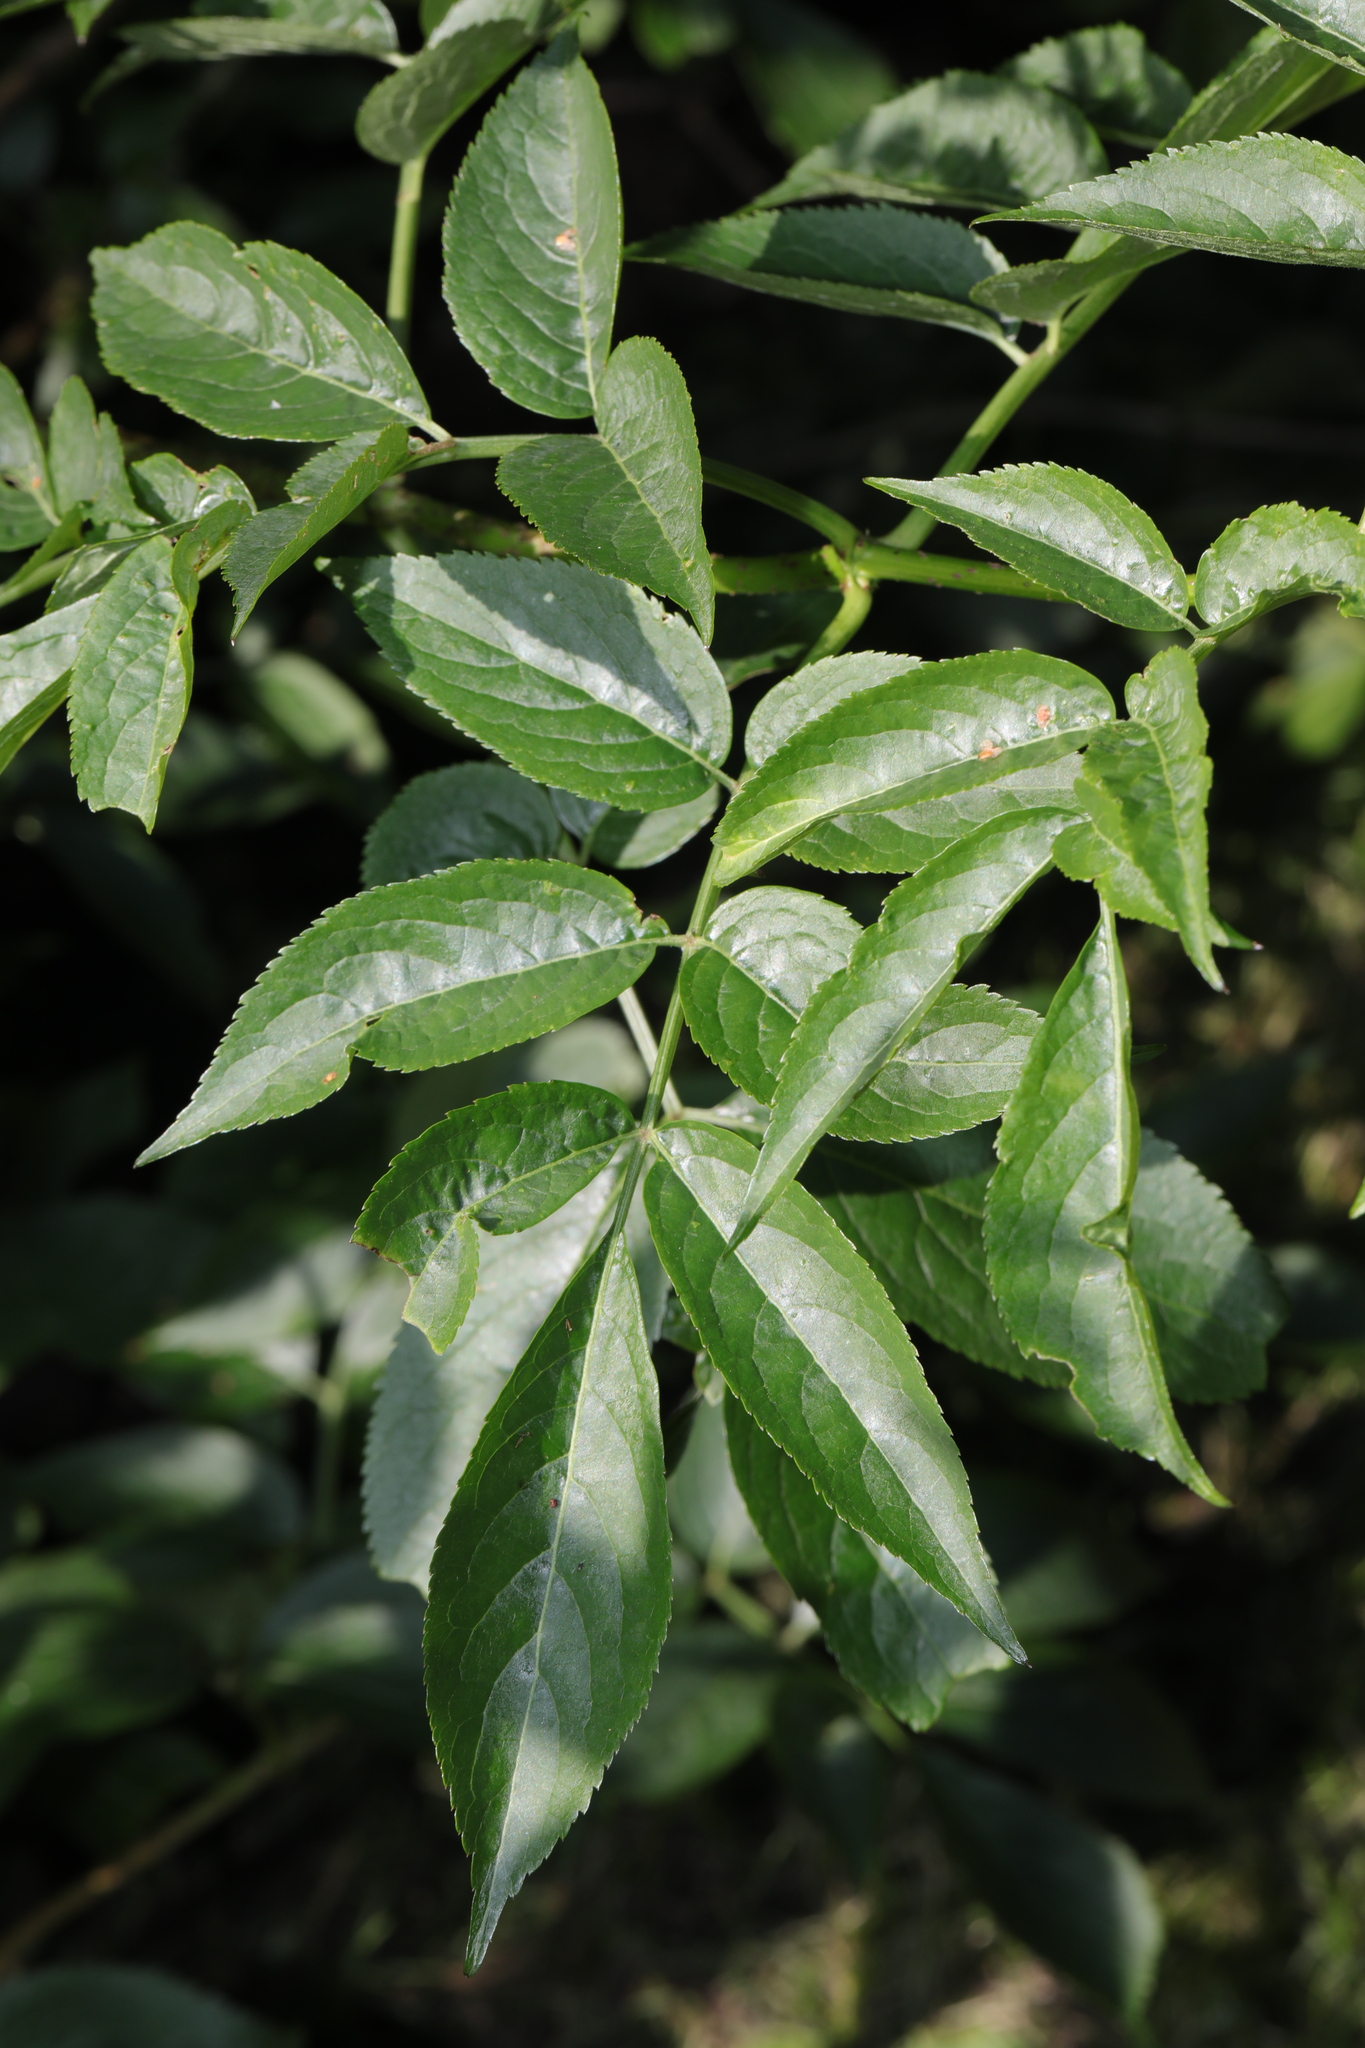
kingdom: Plantae
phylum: Tracheophyta
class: Magnoliopsida
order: Dipsacales
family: Viburnaceae
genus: Sambucus
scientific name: Sambucus nigra
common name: Elder
